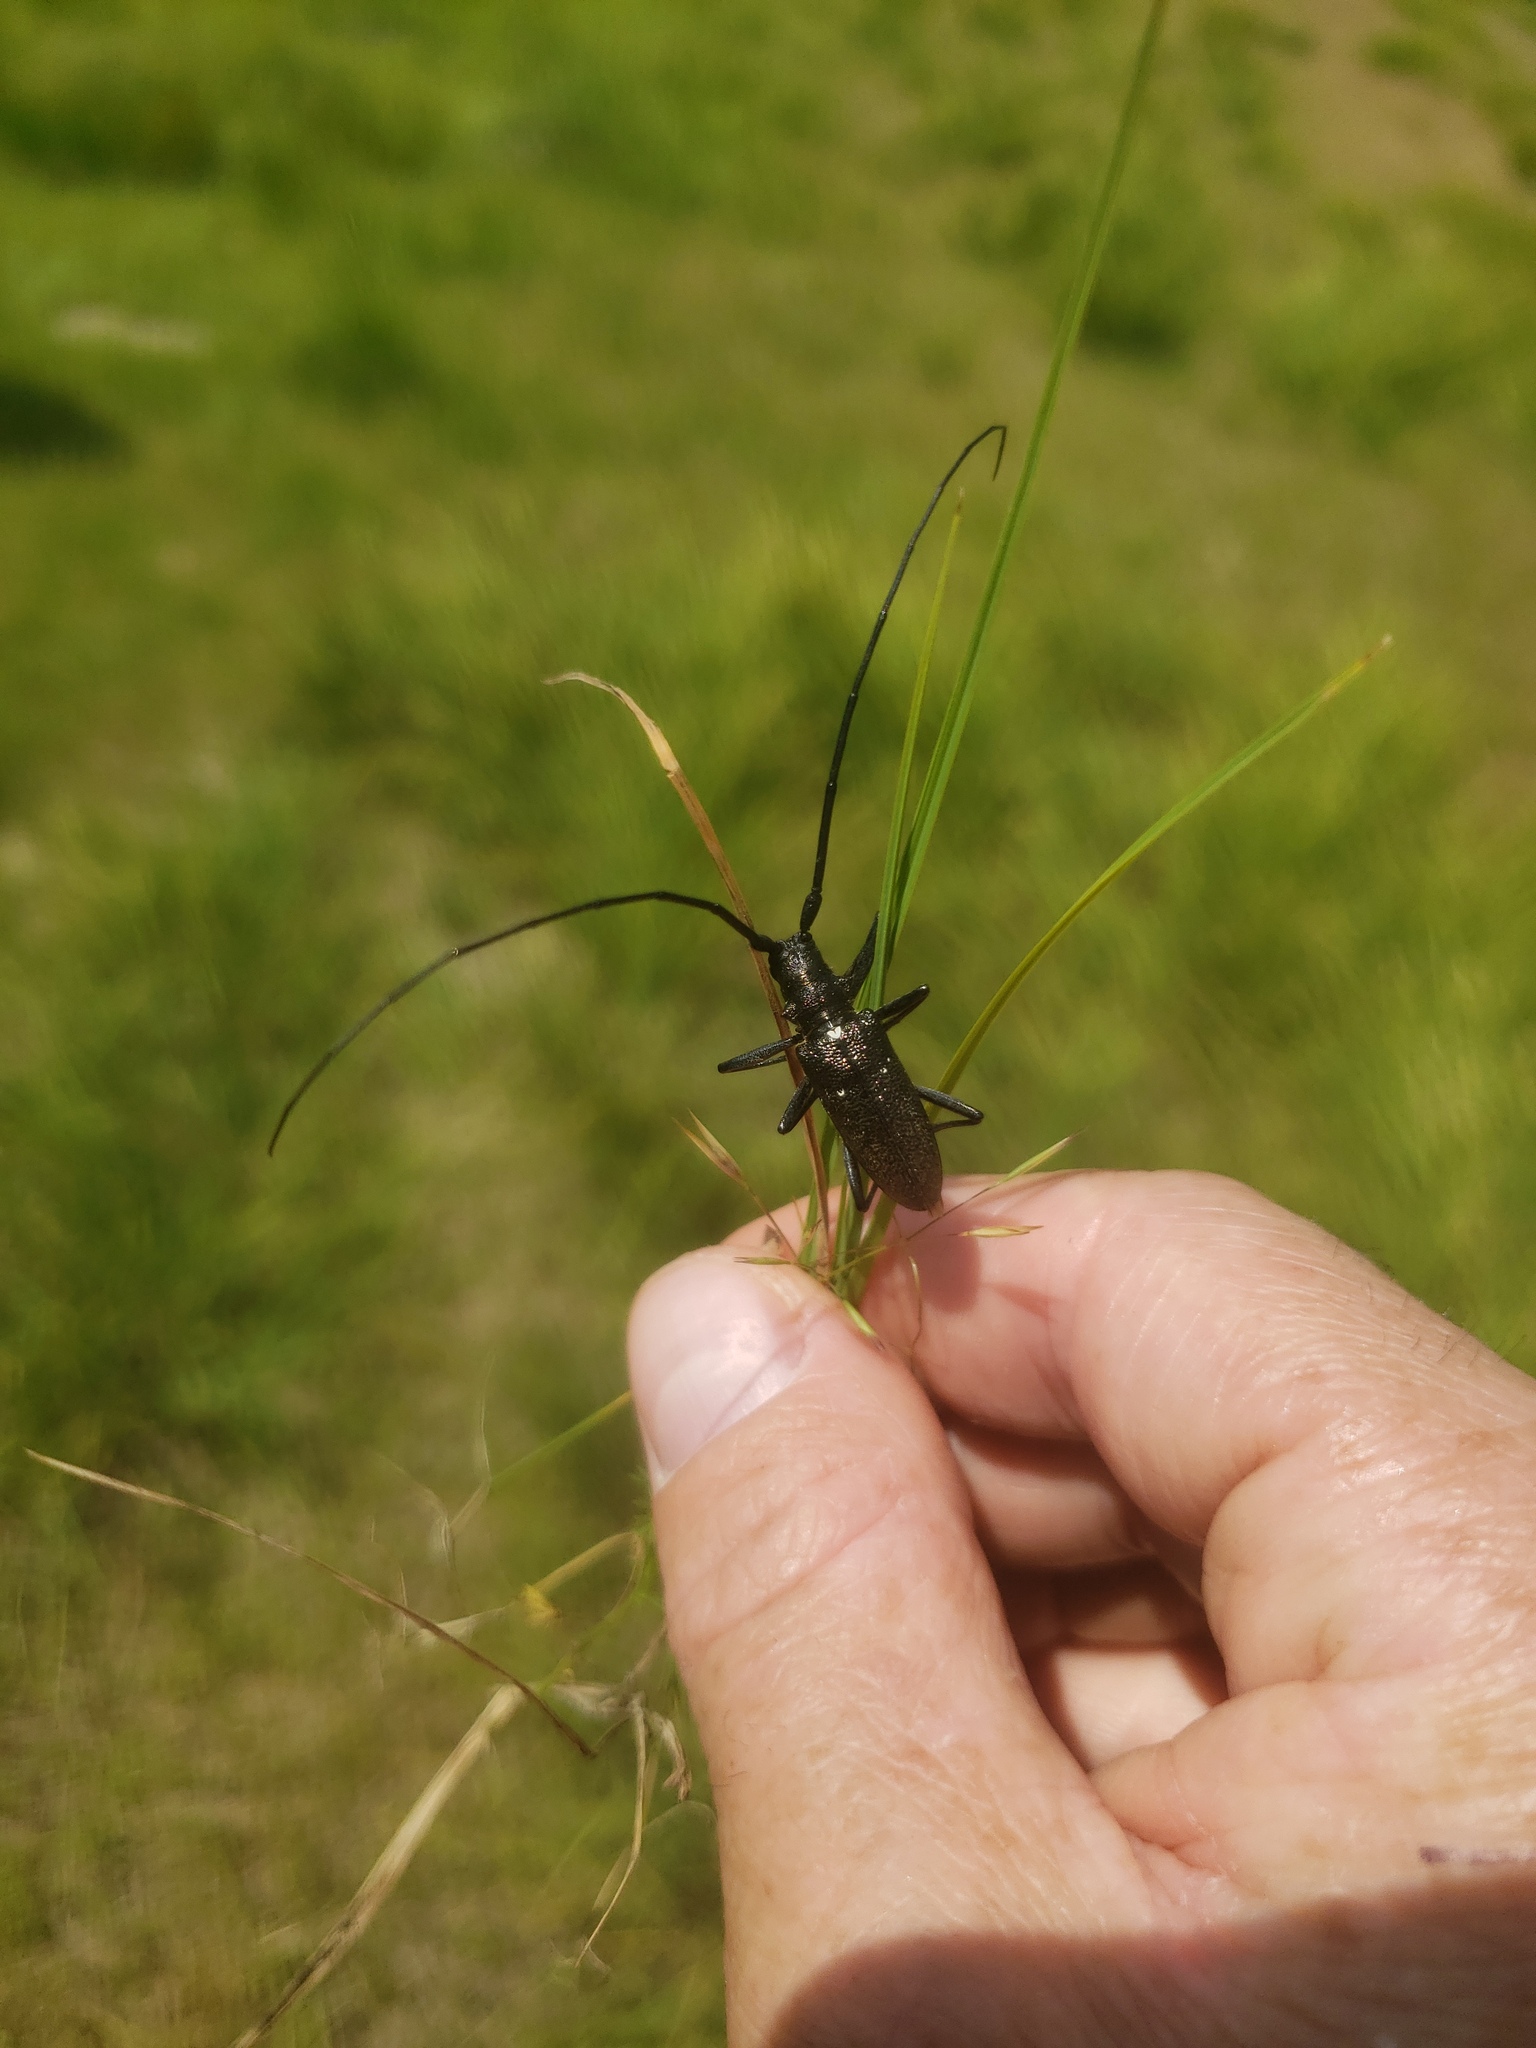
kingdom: Animalia
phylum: Arthropoda
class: Insecta
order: Coleoptera
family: Cerambycidae
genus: Monochamus
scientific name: Monochamus scutellatus
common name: White-spotted sawyer beetle
